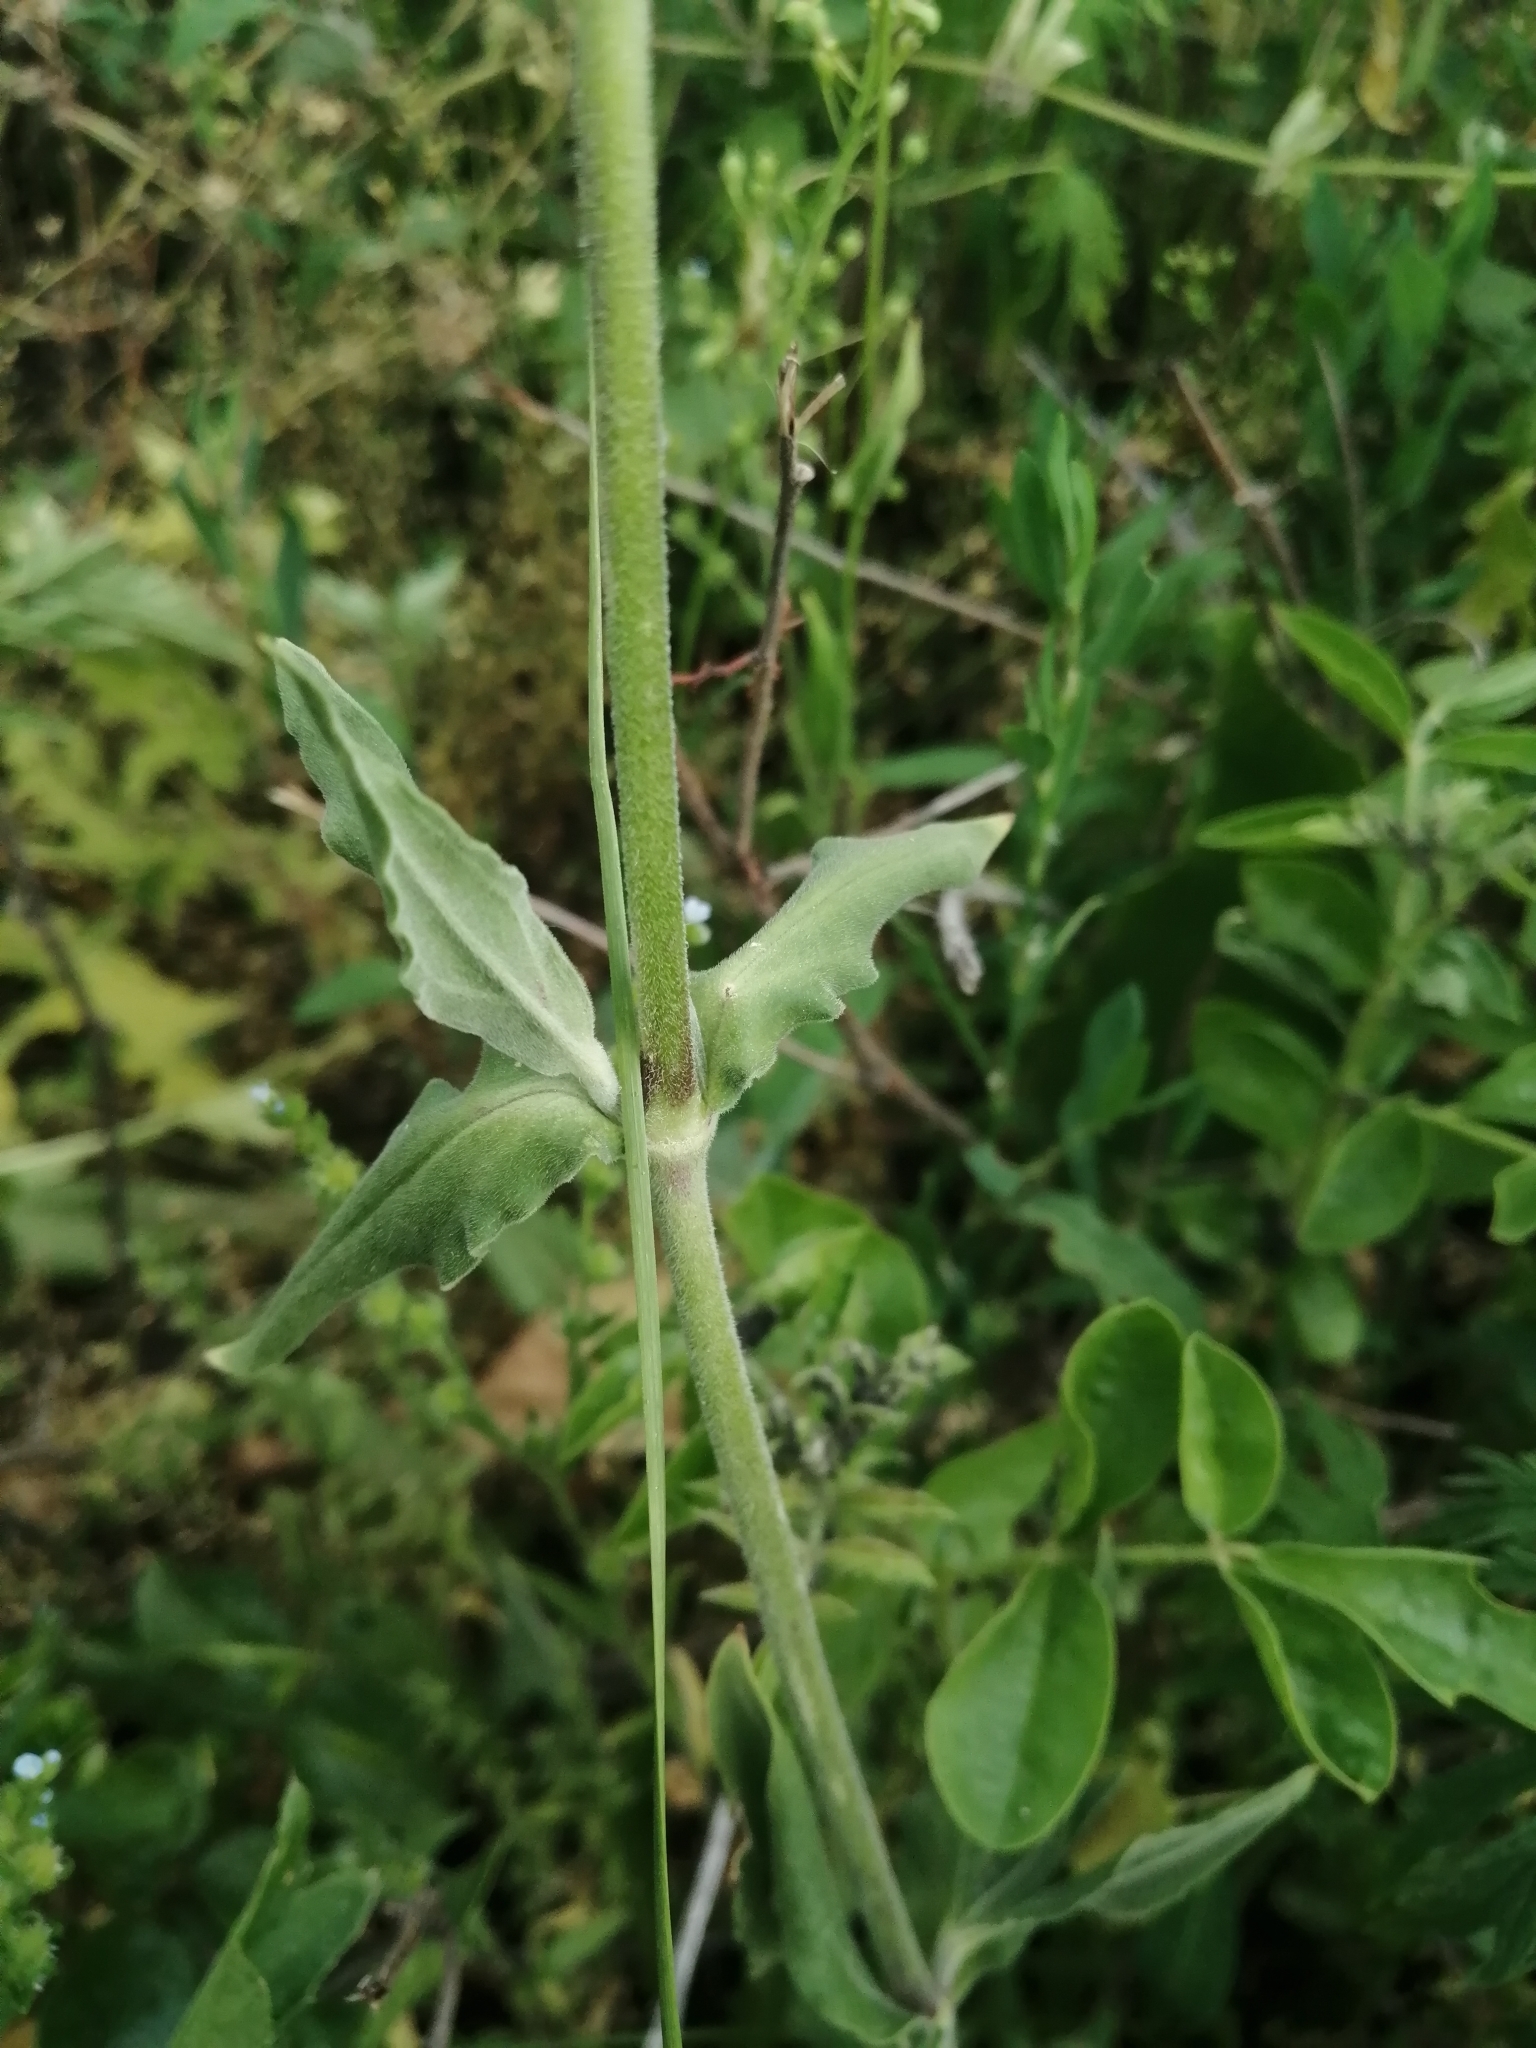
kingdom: Plantae
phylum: Tracheophyta
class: Magnoliopsida
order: Caryophyllales
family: Caryophyllaceae
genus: Silene
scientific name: Silene latifolia
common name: White campion
